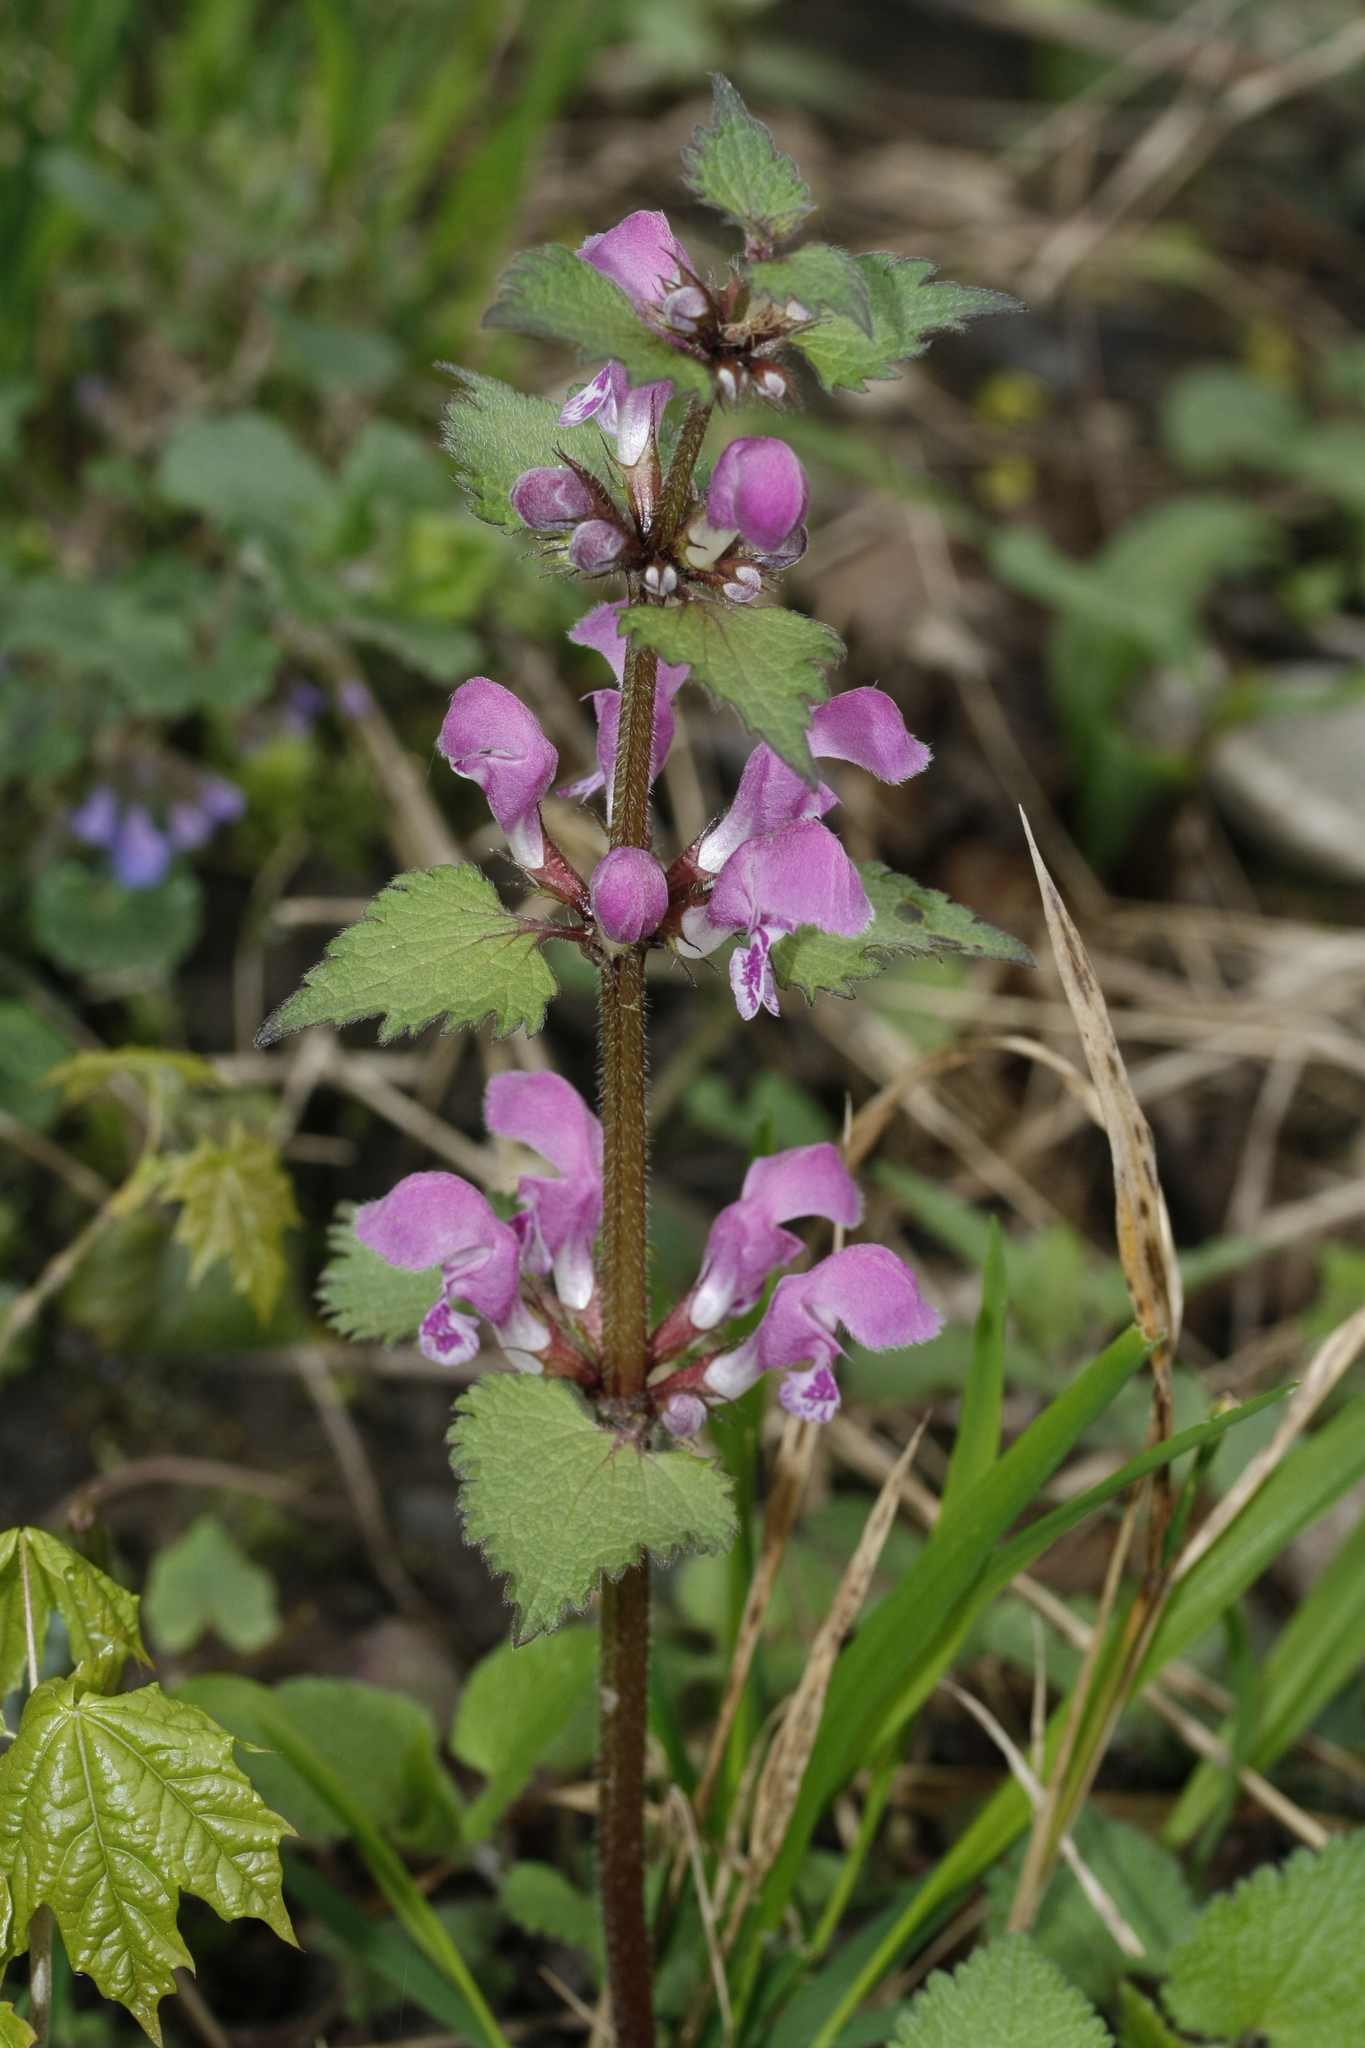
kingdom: Plantae
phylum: Tracheophyta
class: Magnoliopsida
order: Lamiales
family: Lamiaceae
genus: Lamium
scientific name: Lamium maculatum
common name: Spotted dead-nettle
